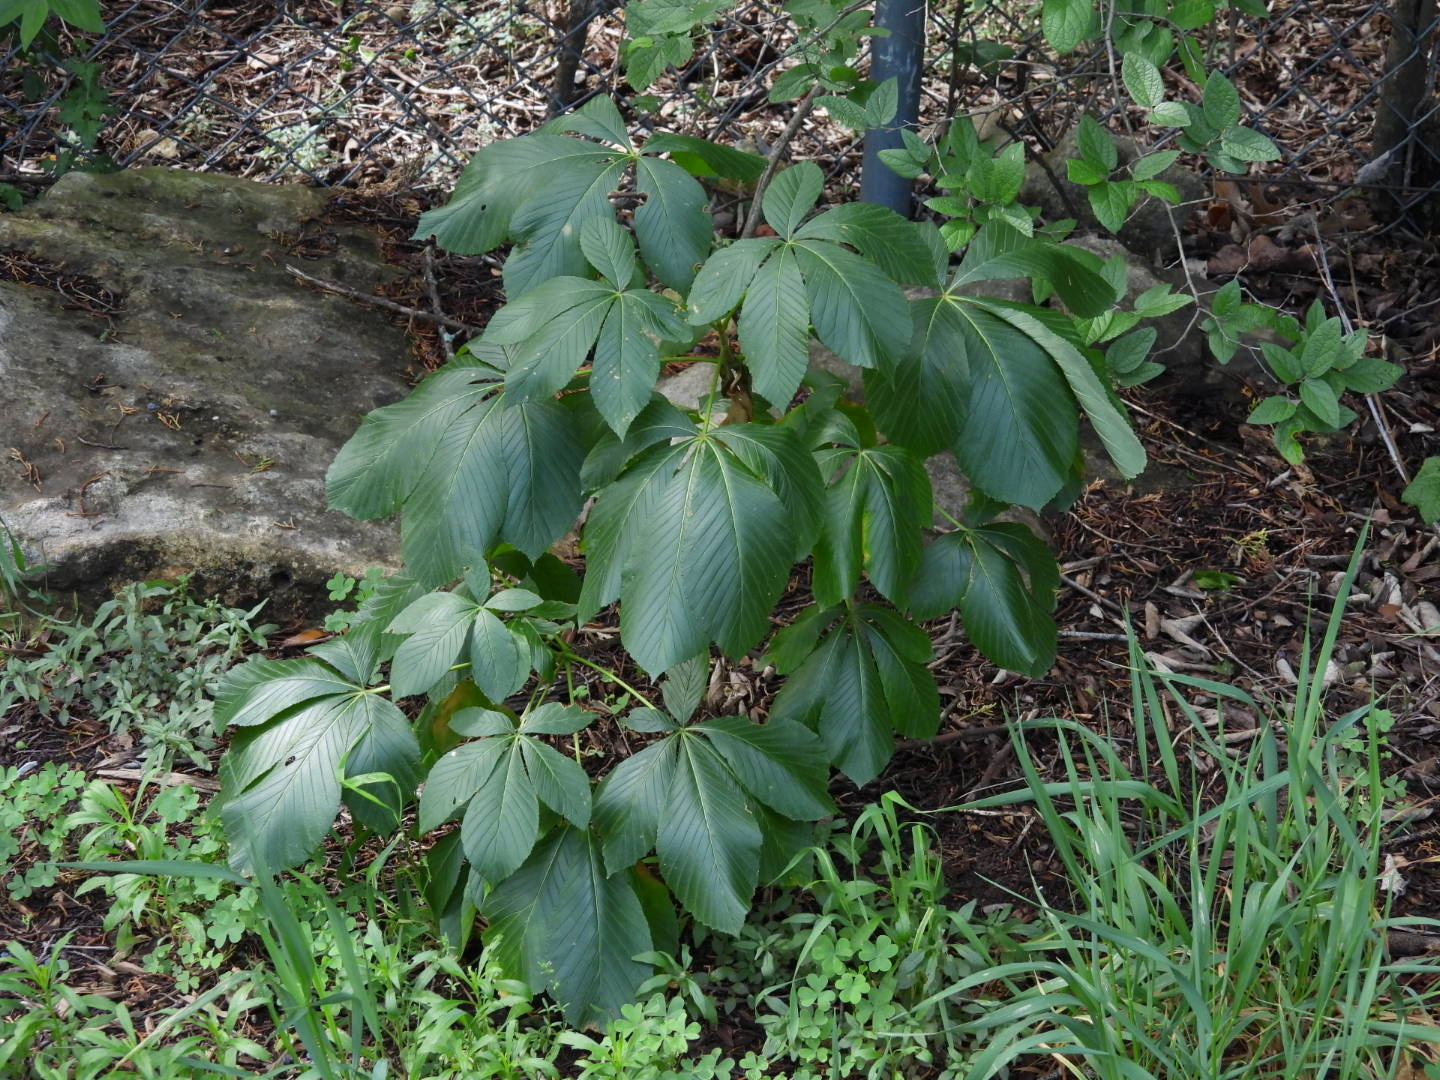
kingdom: Plantae
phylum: Tracheophyta
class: Magnoliopsida
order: Sapindales
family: Sapindaceae
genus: Aesculus
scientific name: Aesculus pavia
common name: Red buckeye
